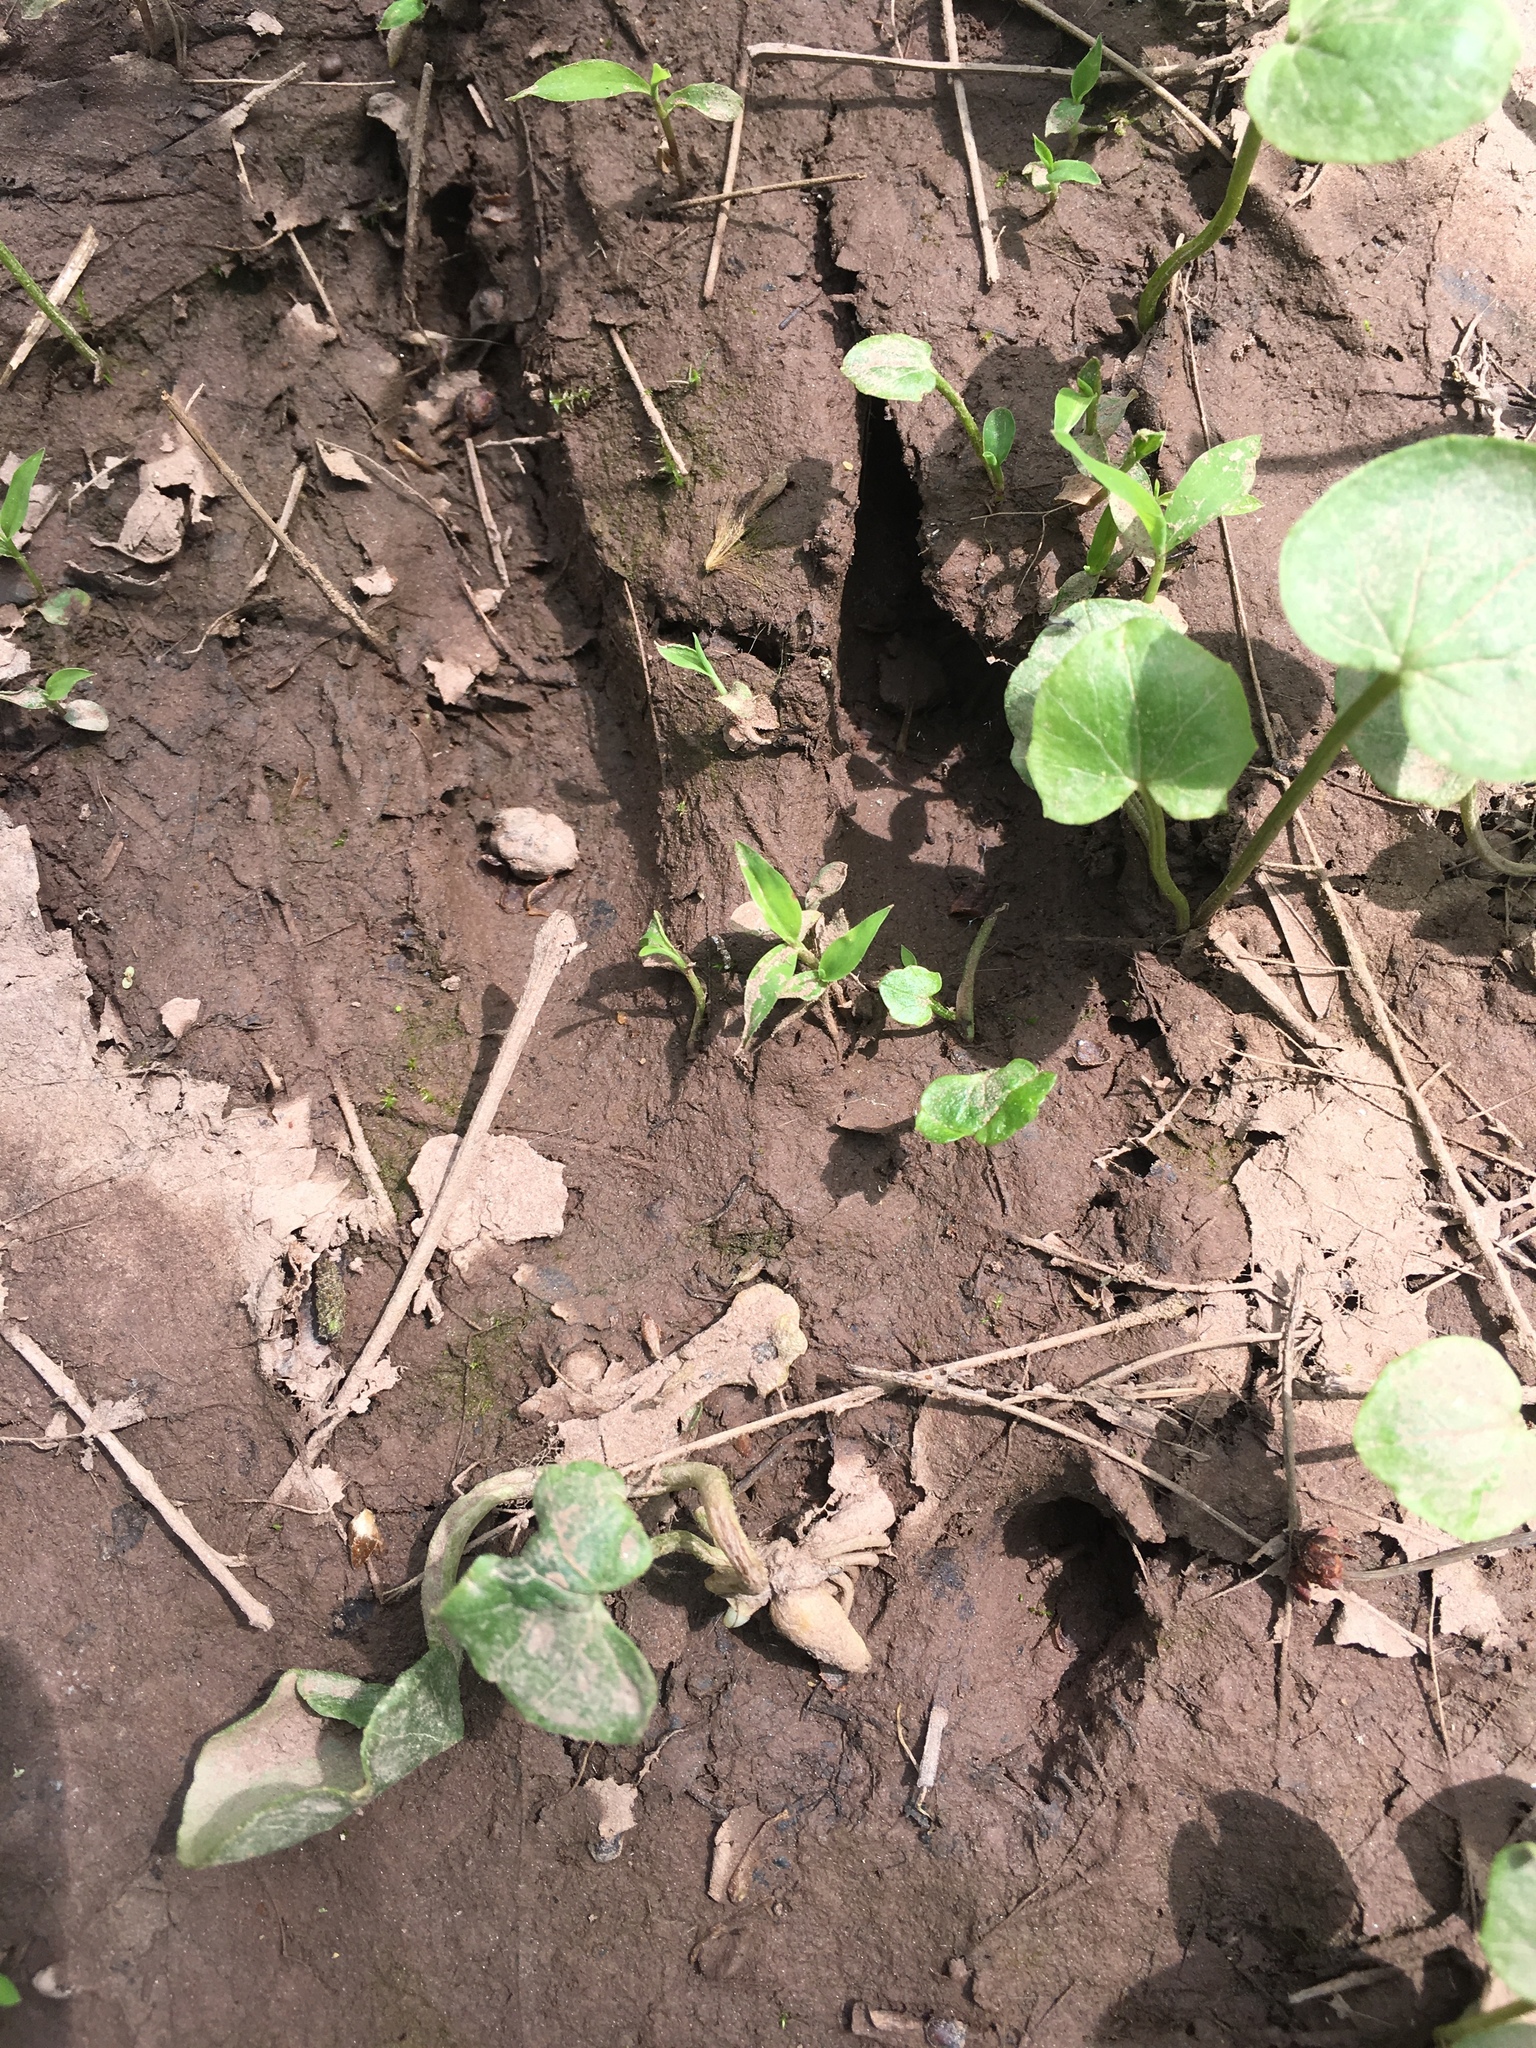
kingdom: Animalia
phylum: Chordata
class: Mammalia
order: Artiodactyla
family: Cervidae
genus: Odocoileus
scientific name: Odocoileus virginianus
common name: White-tailed deer
